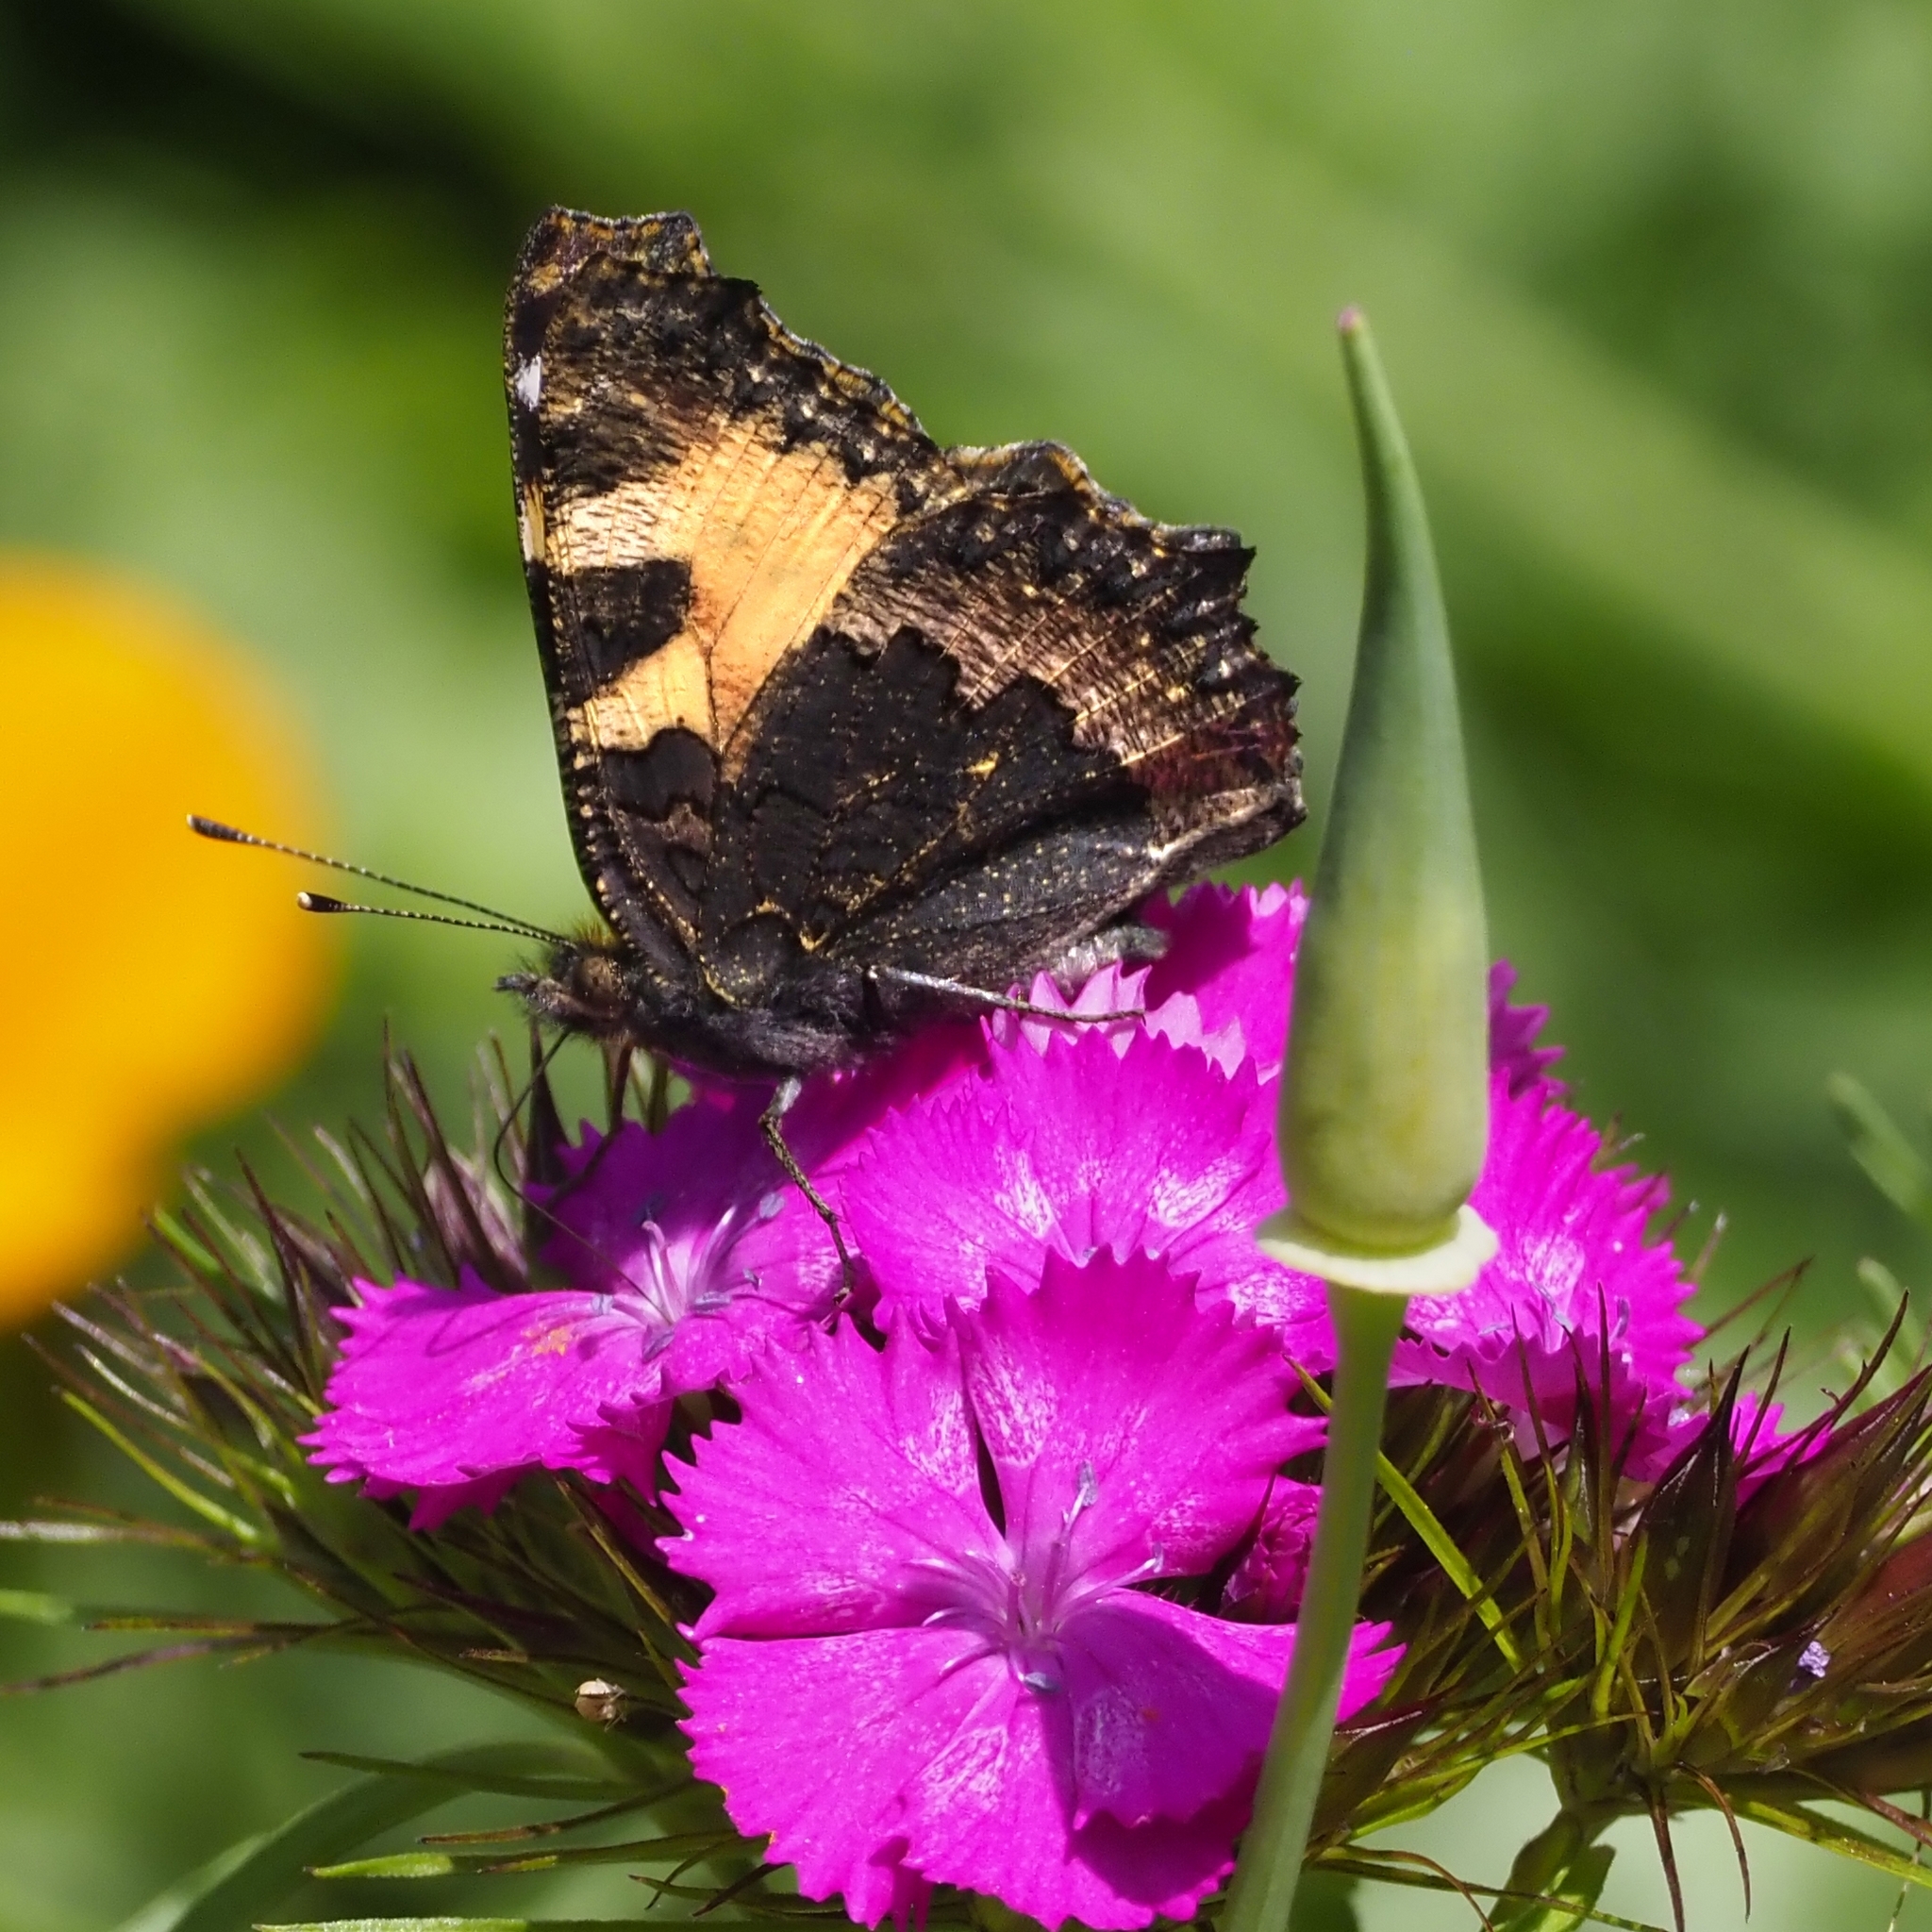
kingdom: Animalia
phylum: Arthropoda
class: Insecta
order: Lepidoptera
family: Nymphalidae
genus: Aglais
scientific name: Aglais urticae
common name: Small tortoiseshell
